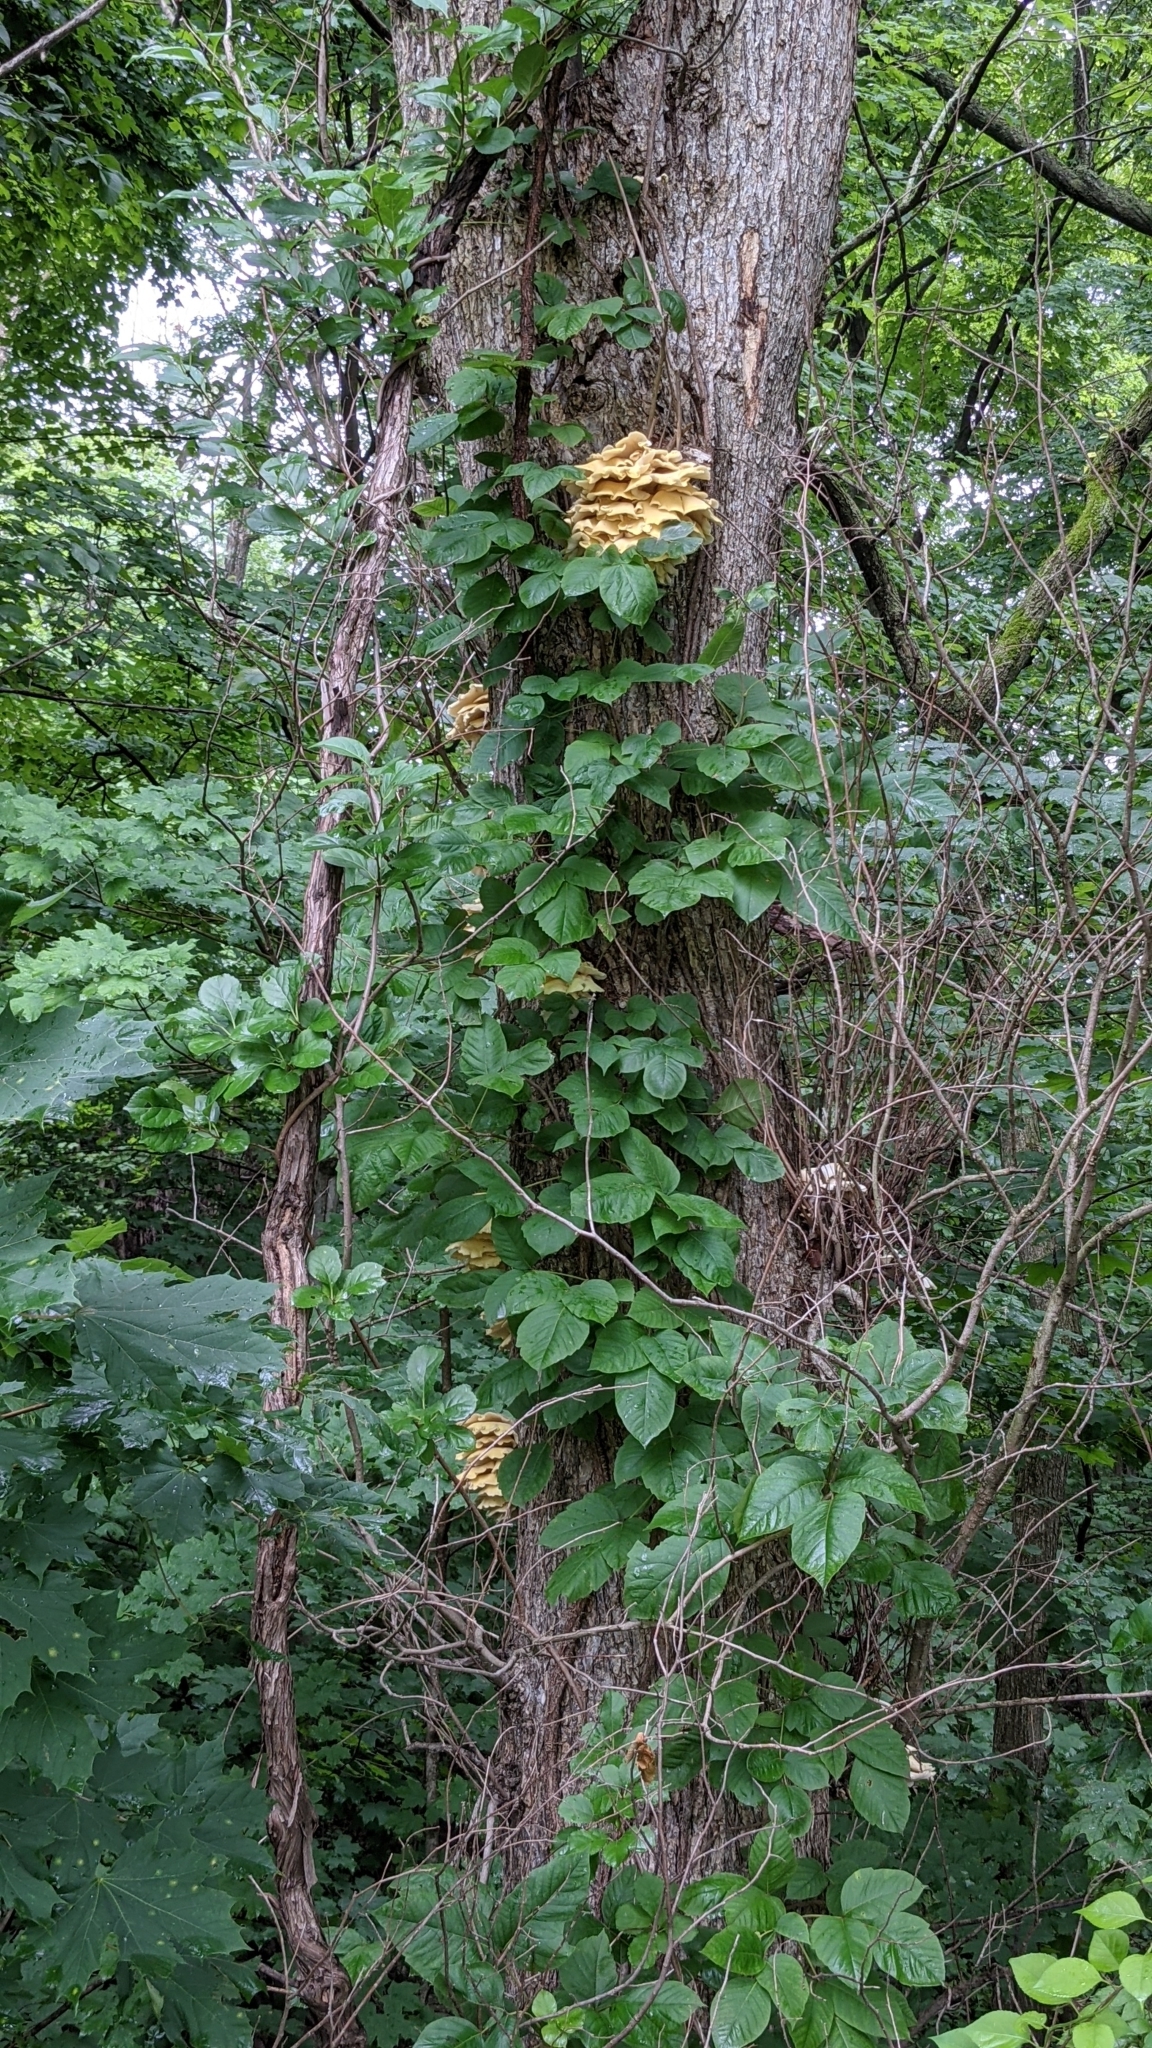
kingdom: Plantae
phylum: Tracheophyta
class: Magnoliopsida
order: Sapindales
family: Anacardiaceae
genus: Toxicodendron
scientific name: Toxicodendron radicans
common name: Poison ivy
